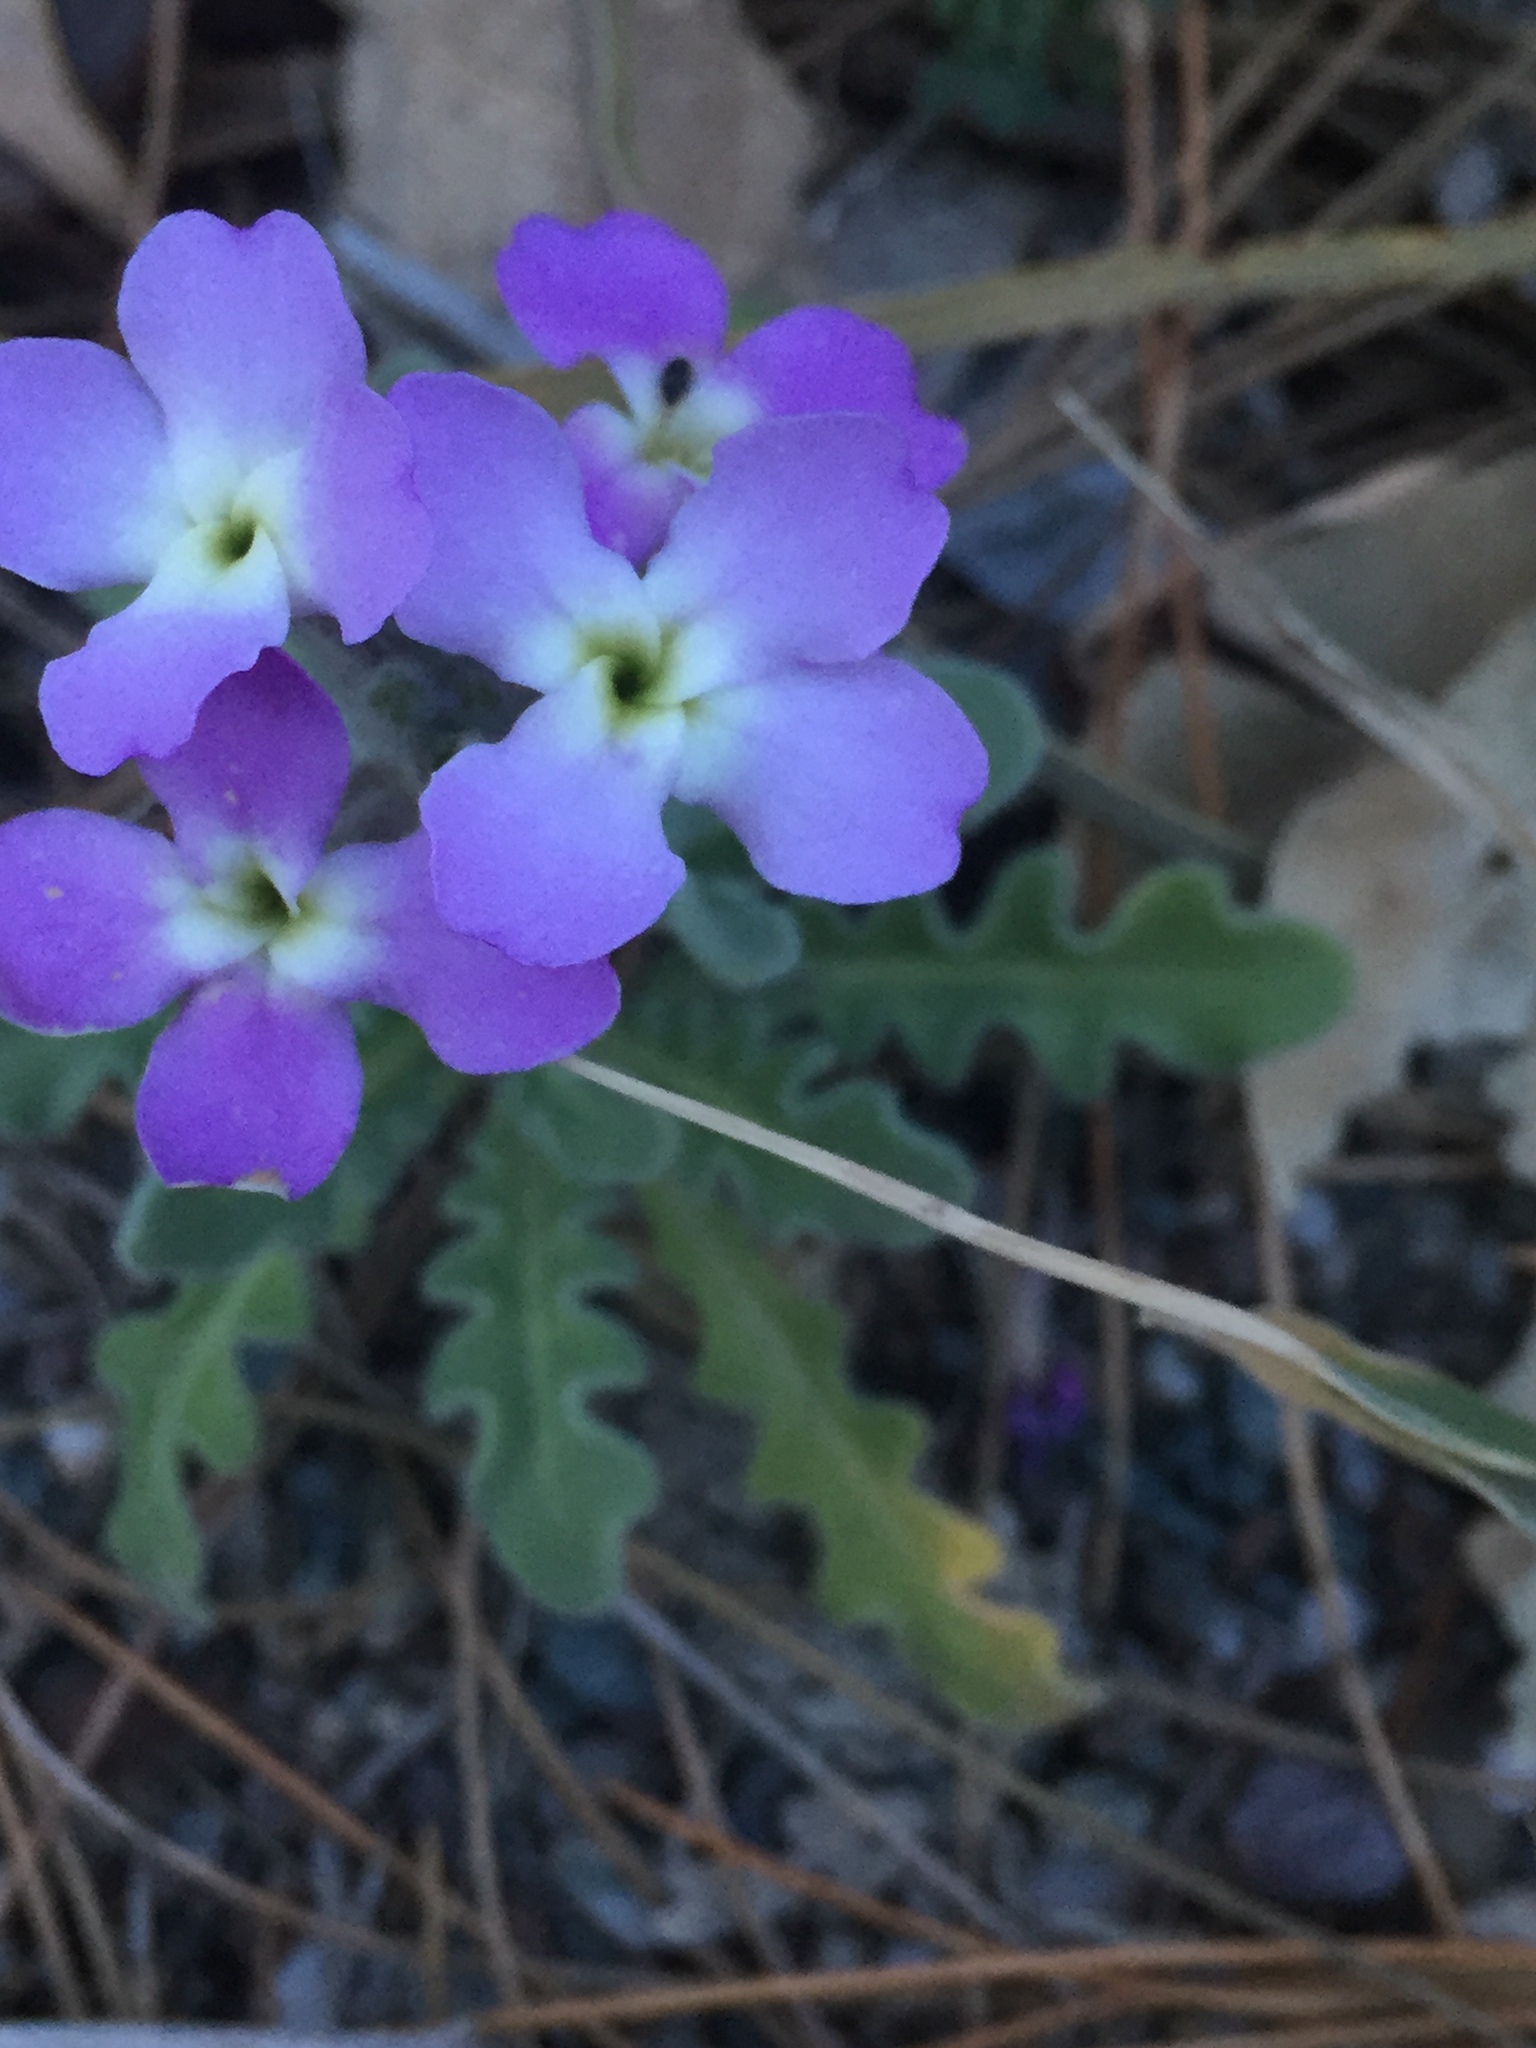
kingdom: Plantae
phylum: Tracheophyta
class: Magnoliopsida
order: Brassicales
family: Brassicaceae
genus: Matthiola
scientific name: Matthiola tricuspidata
